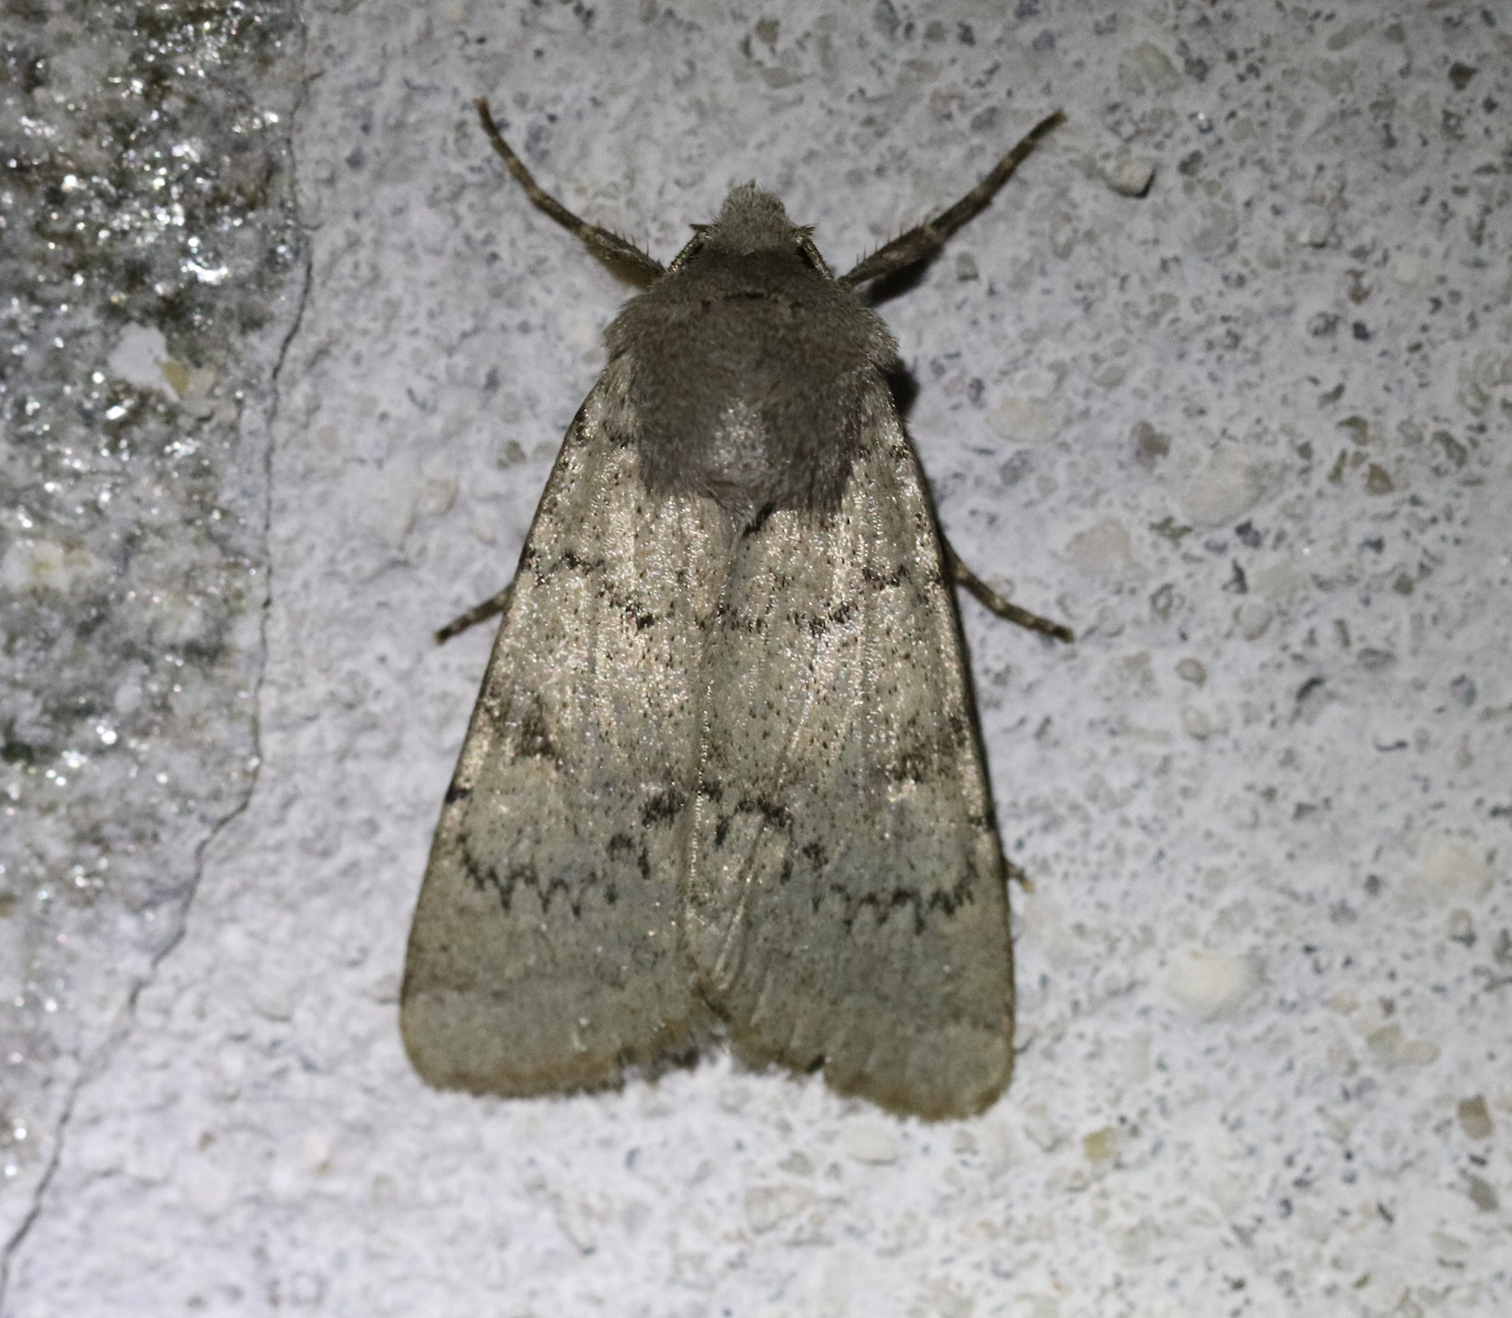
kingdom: Animalia
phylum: Arthropoda
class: Insecta
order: Lepidoptera
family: Noctuidae
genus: Epipsilia
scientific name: Epipsilia grisescens
